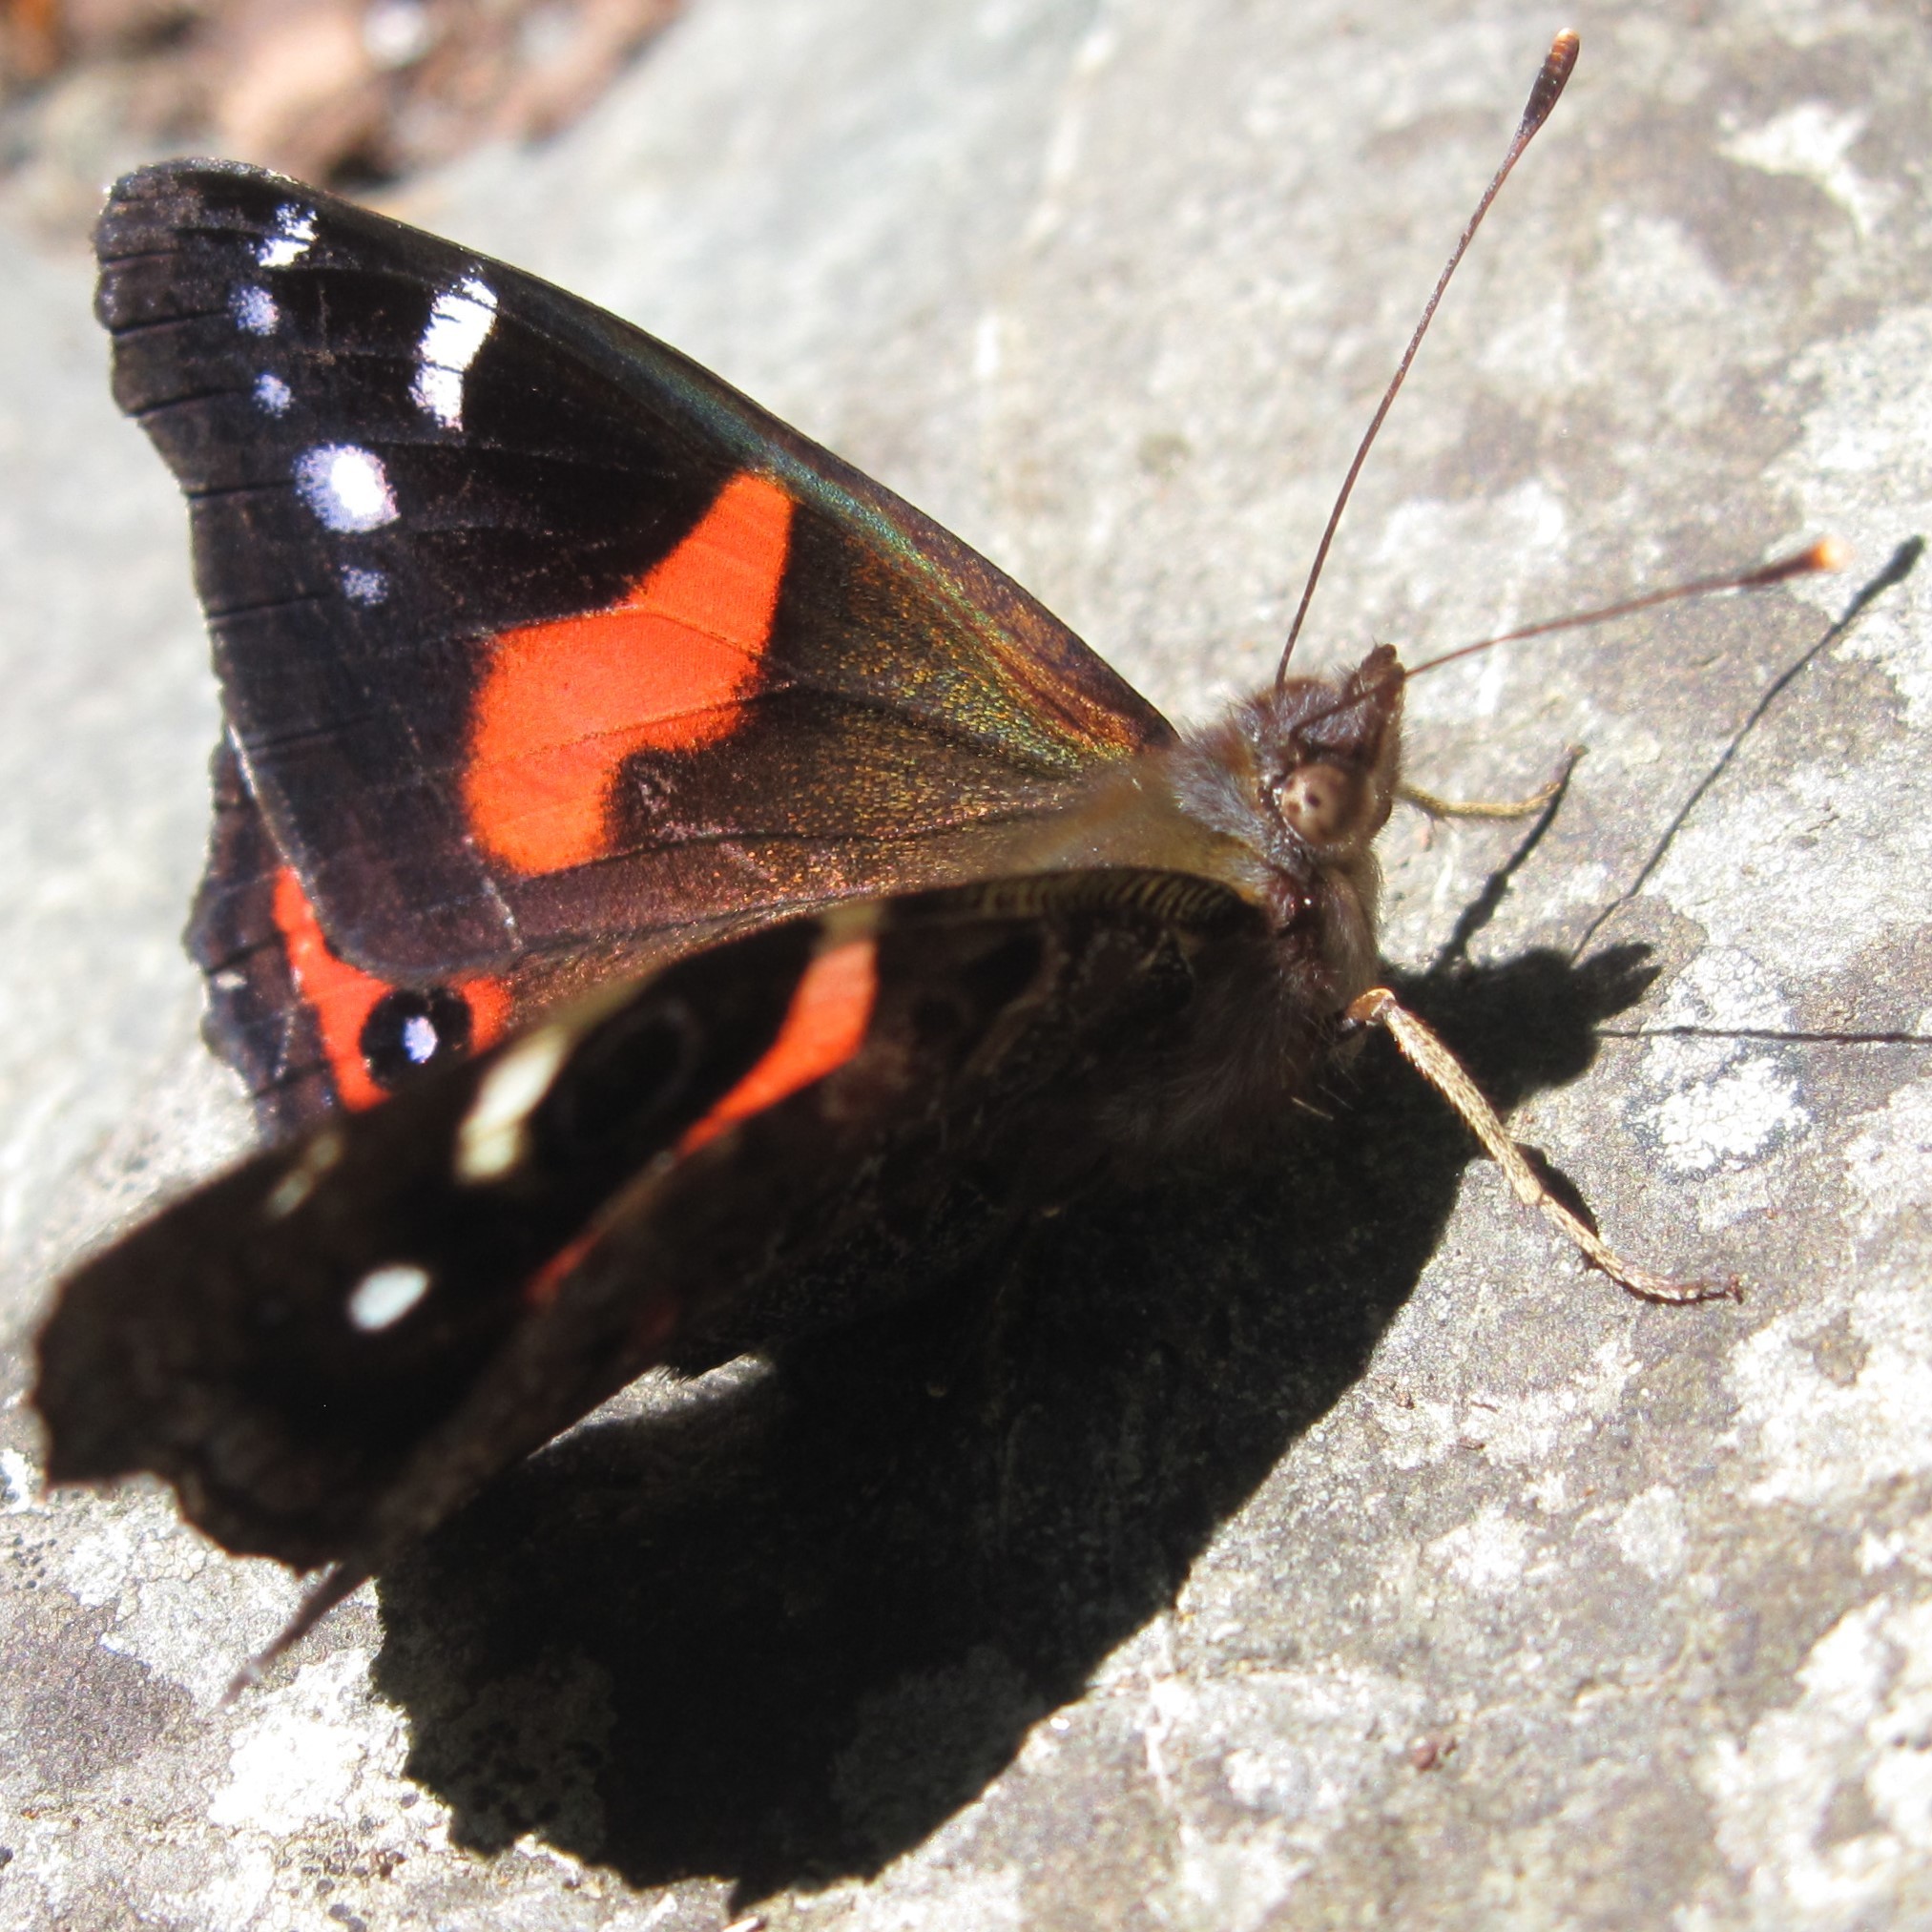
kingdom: Animalia
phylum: Arthropoda
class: Insecta
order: Lepidoptera
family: Nymphalidae
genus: Vanessa
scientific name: Vanessa gonerilla
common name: New zealand red admiral
